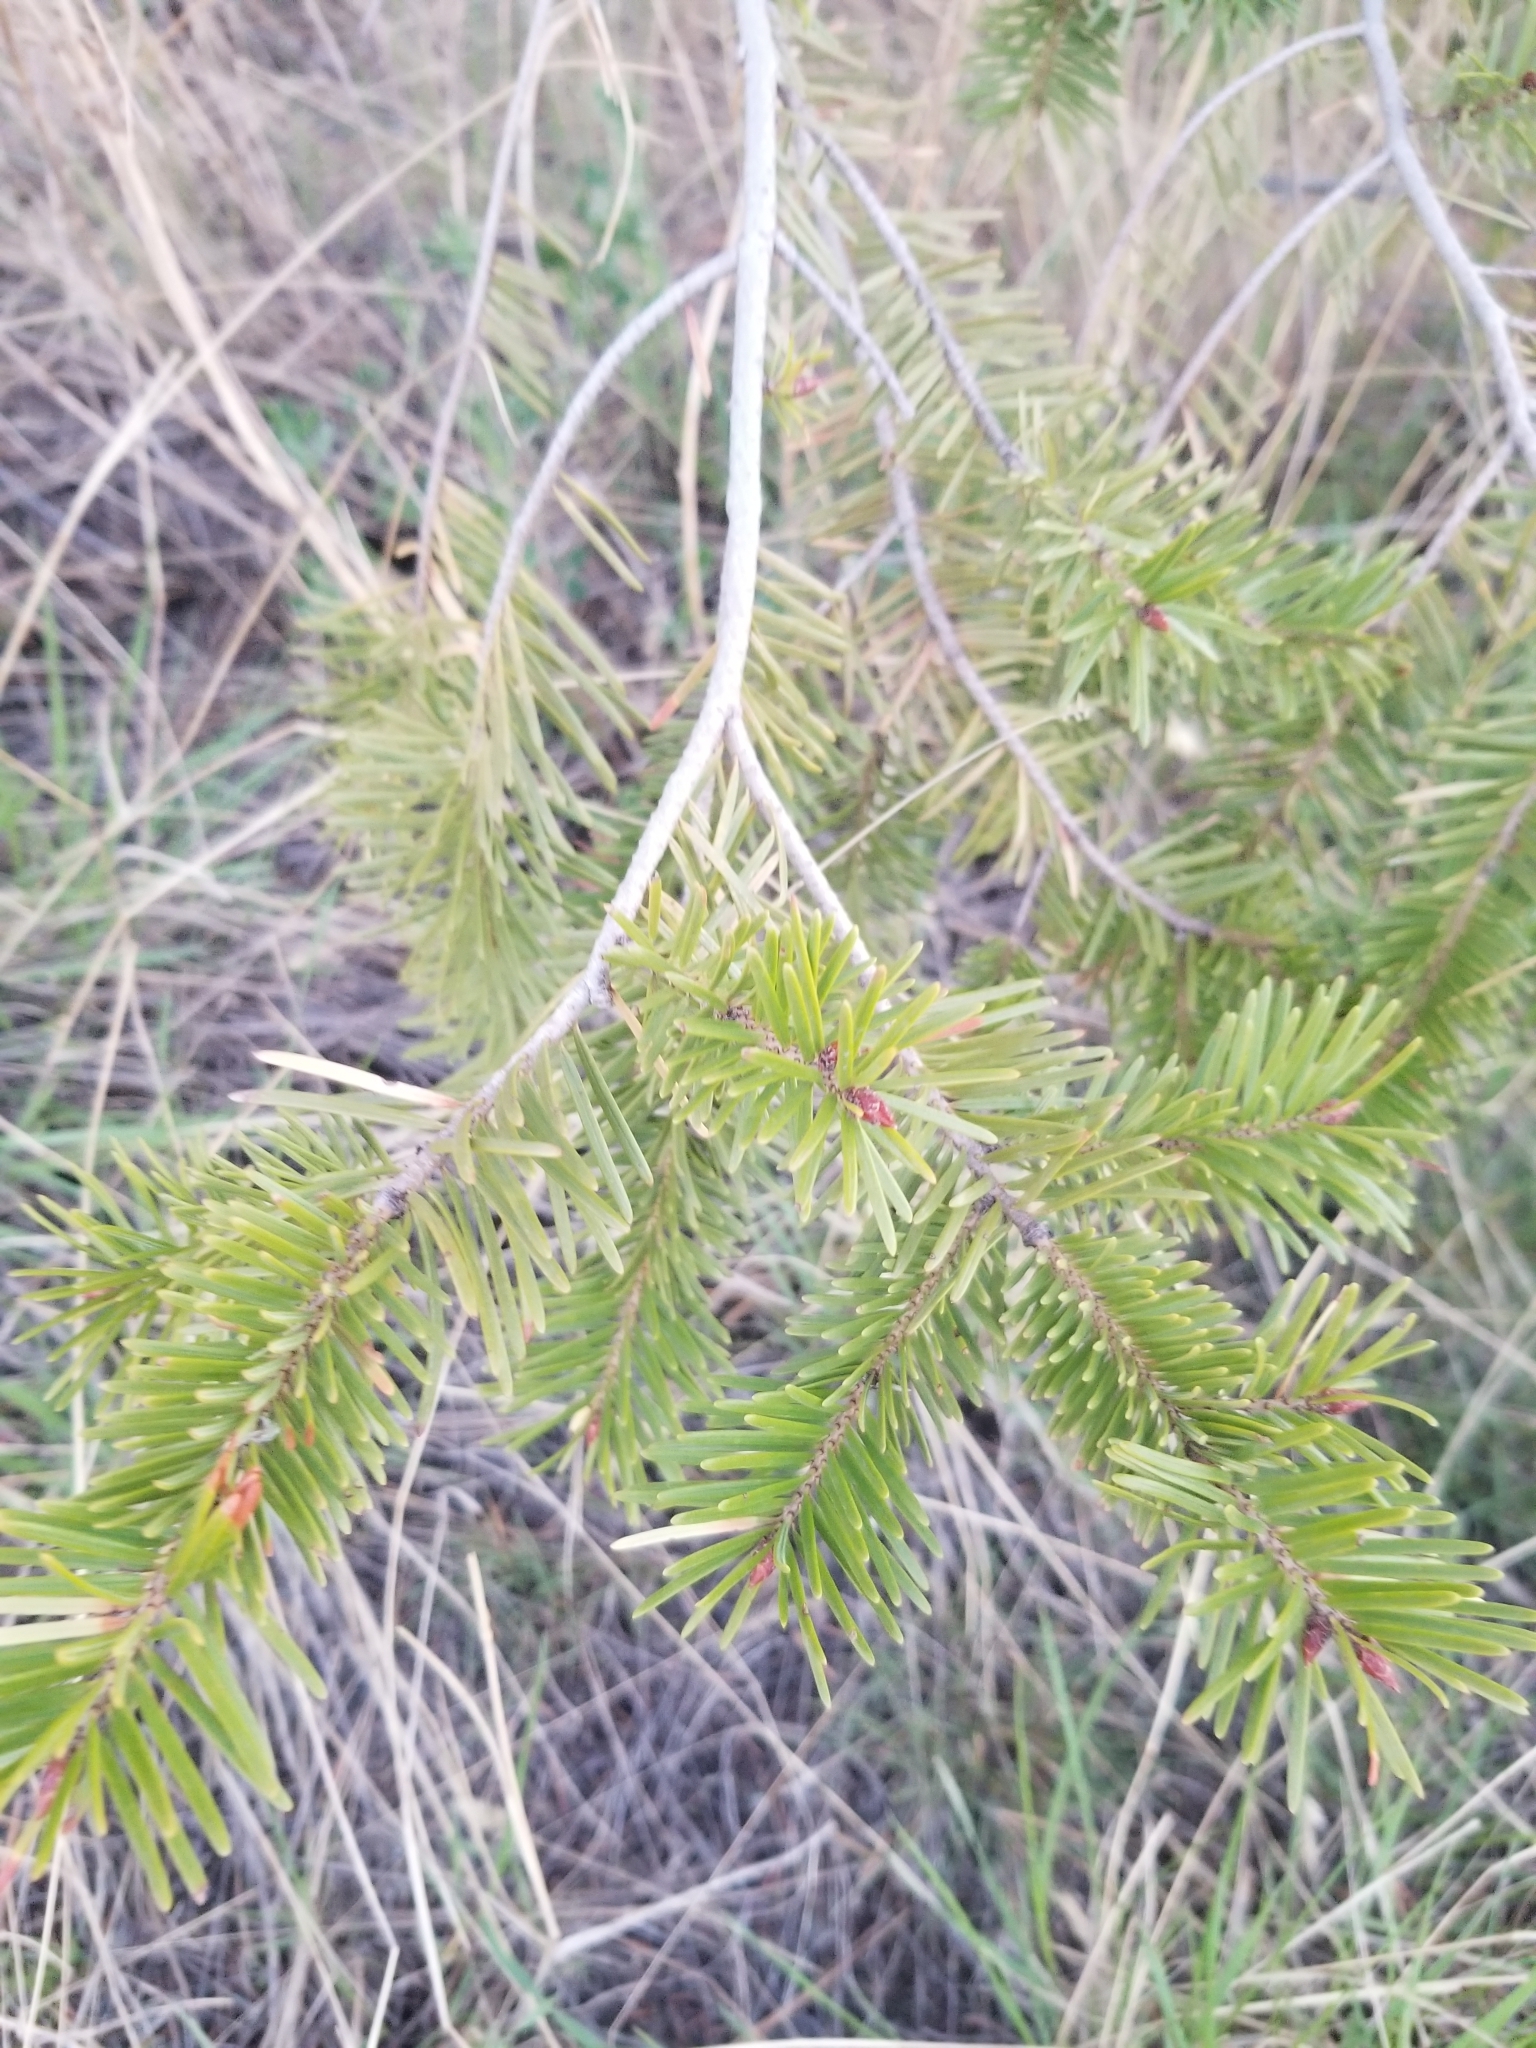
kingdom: Plantae
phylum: Tracheophyta
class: Pinopsida
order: Pinales
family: Pinaceae
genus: Pseudotsuga
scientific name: Pseudotsuga menziesii
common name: Douglas fir
